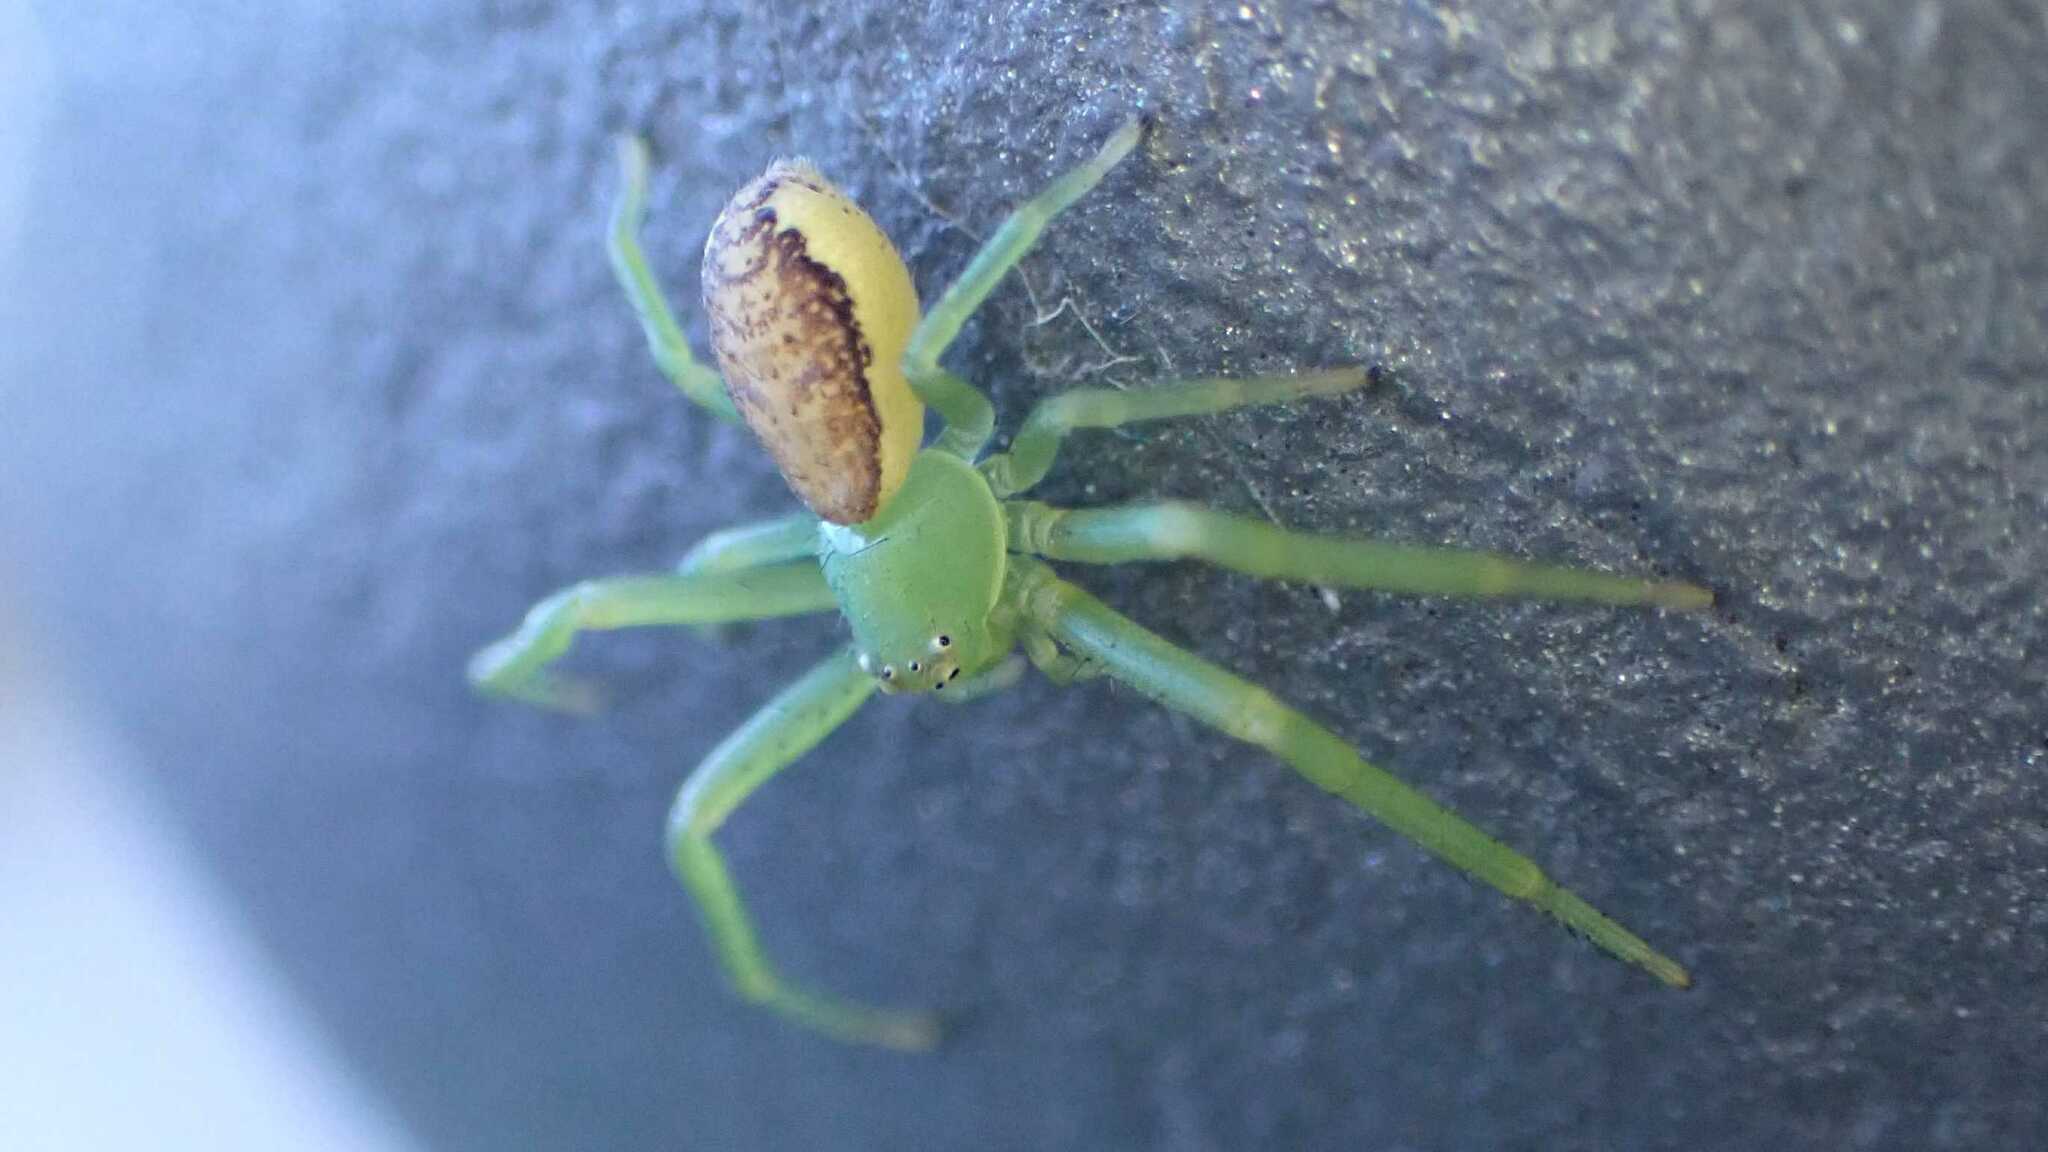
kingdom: Animalia
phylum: Arthropoda
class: Arachnida
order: Araneae
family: Thomisidae
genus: Diaea
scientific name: Diaea dorsata
